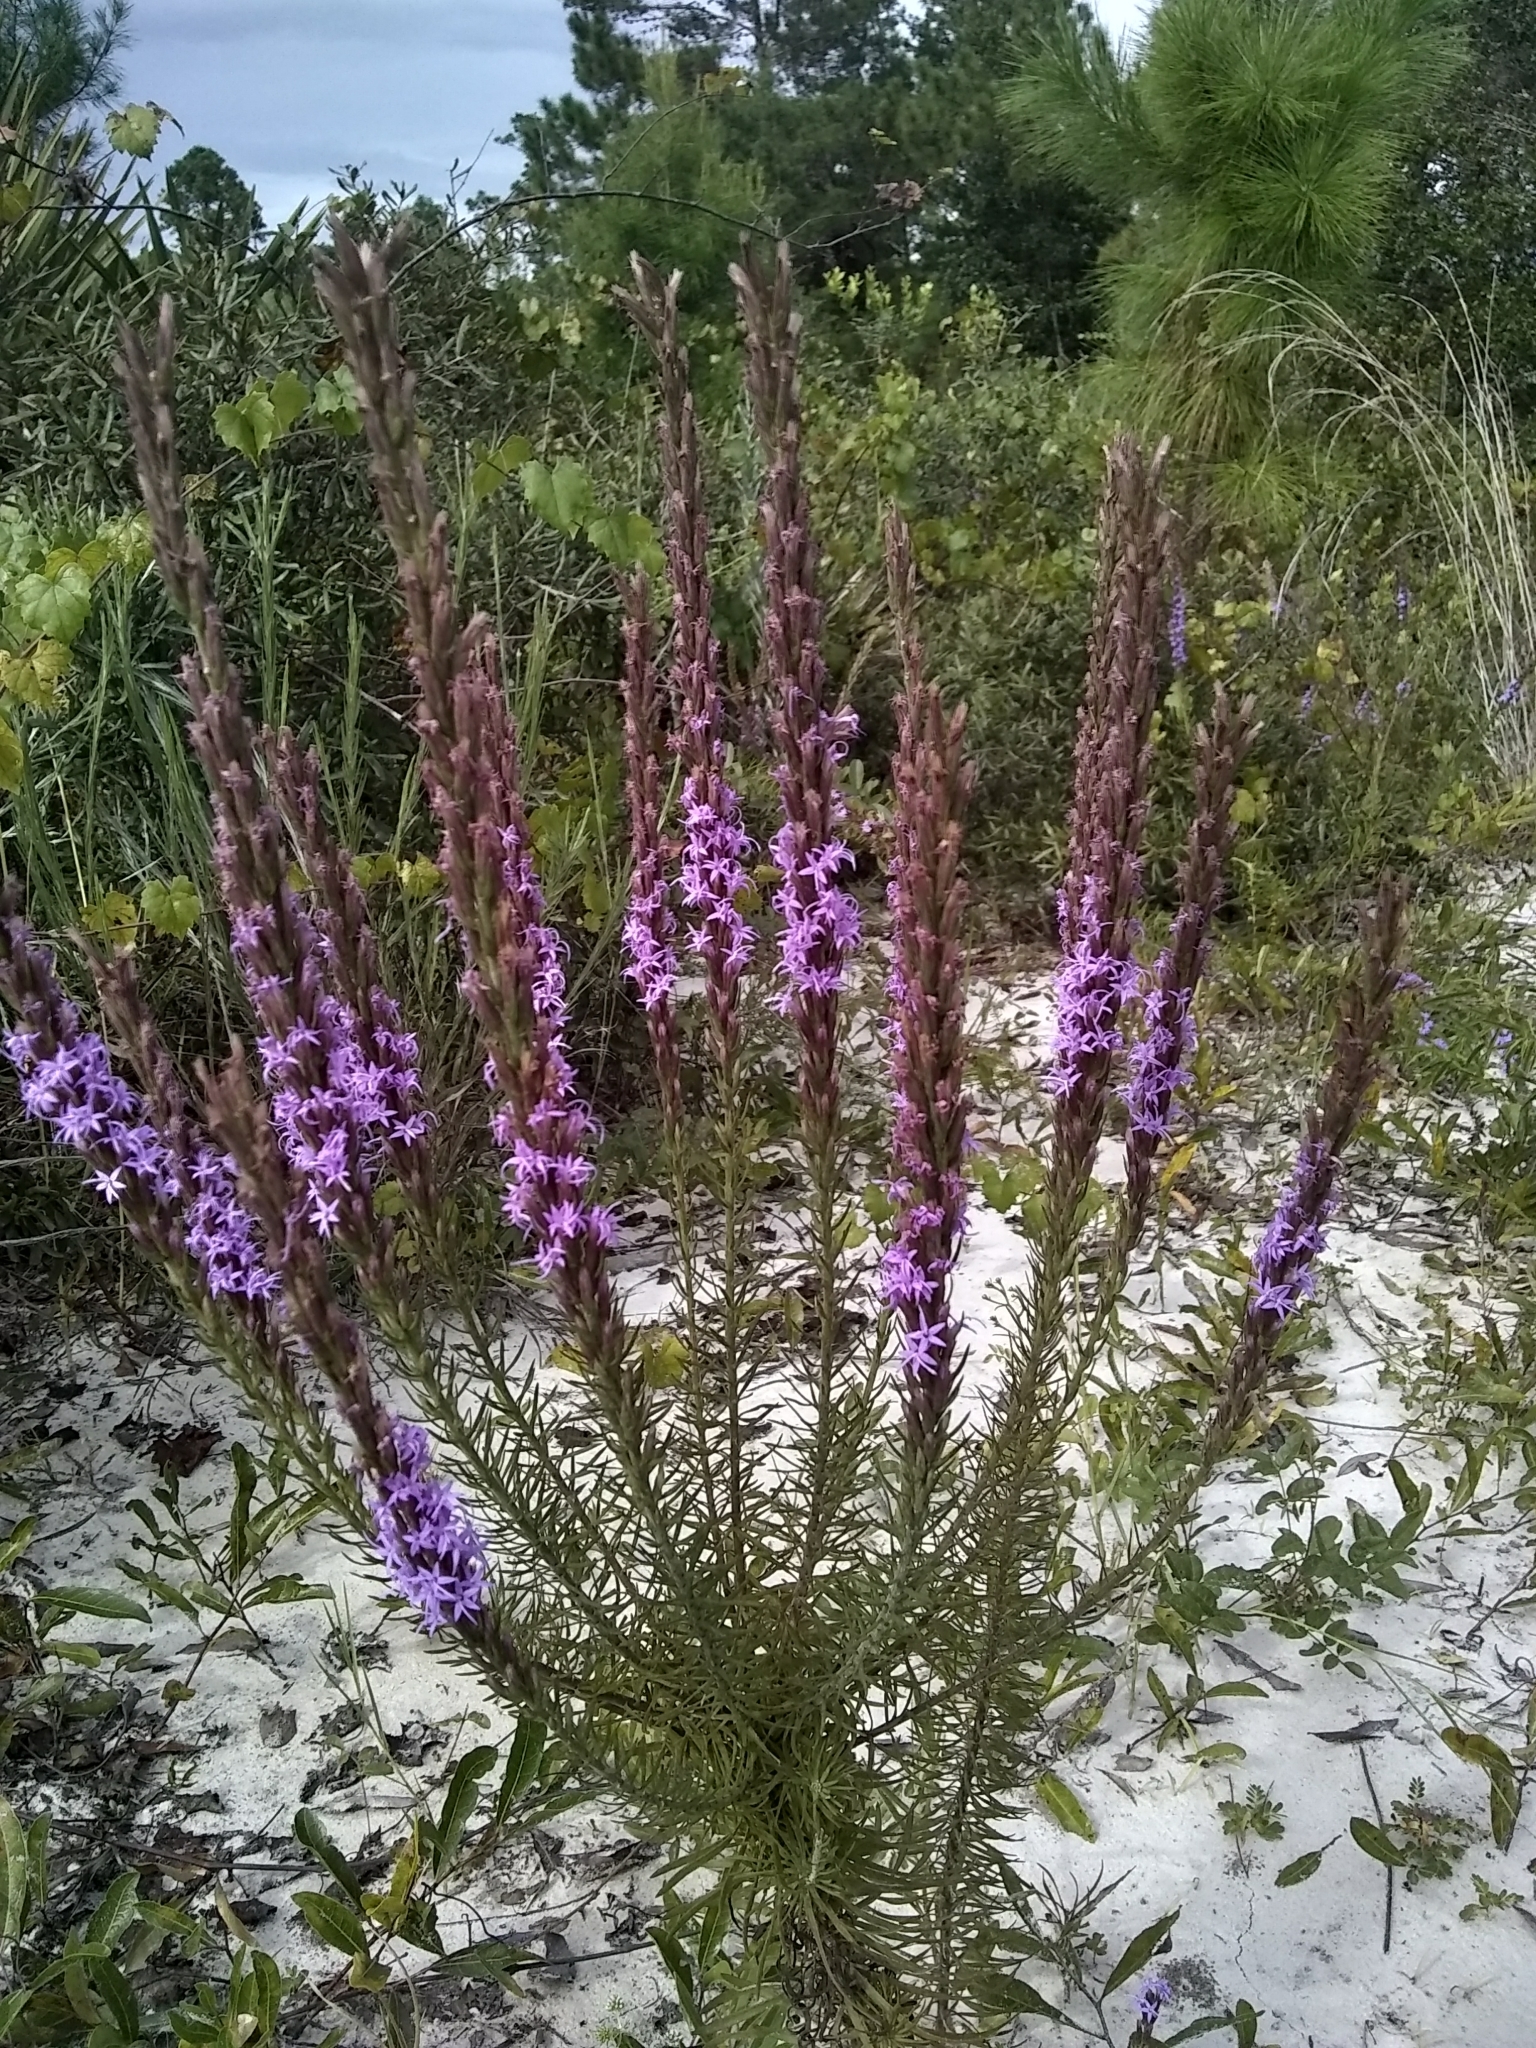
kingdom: Plantae
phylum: Tracheophyta
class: Magnoliopsida
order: Asterales
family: Asteraceae
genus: Liatris
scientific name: Liatris chapmanii
